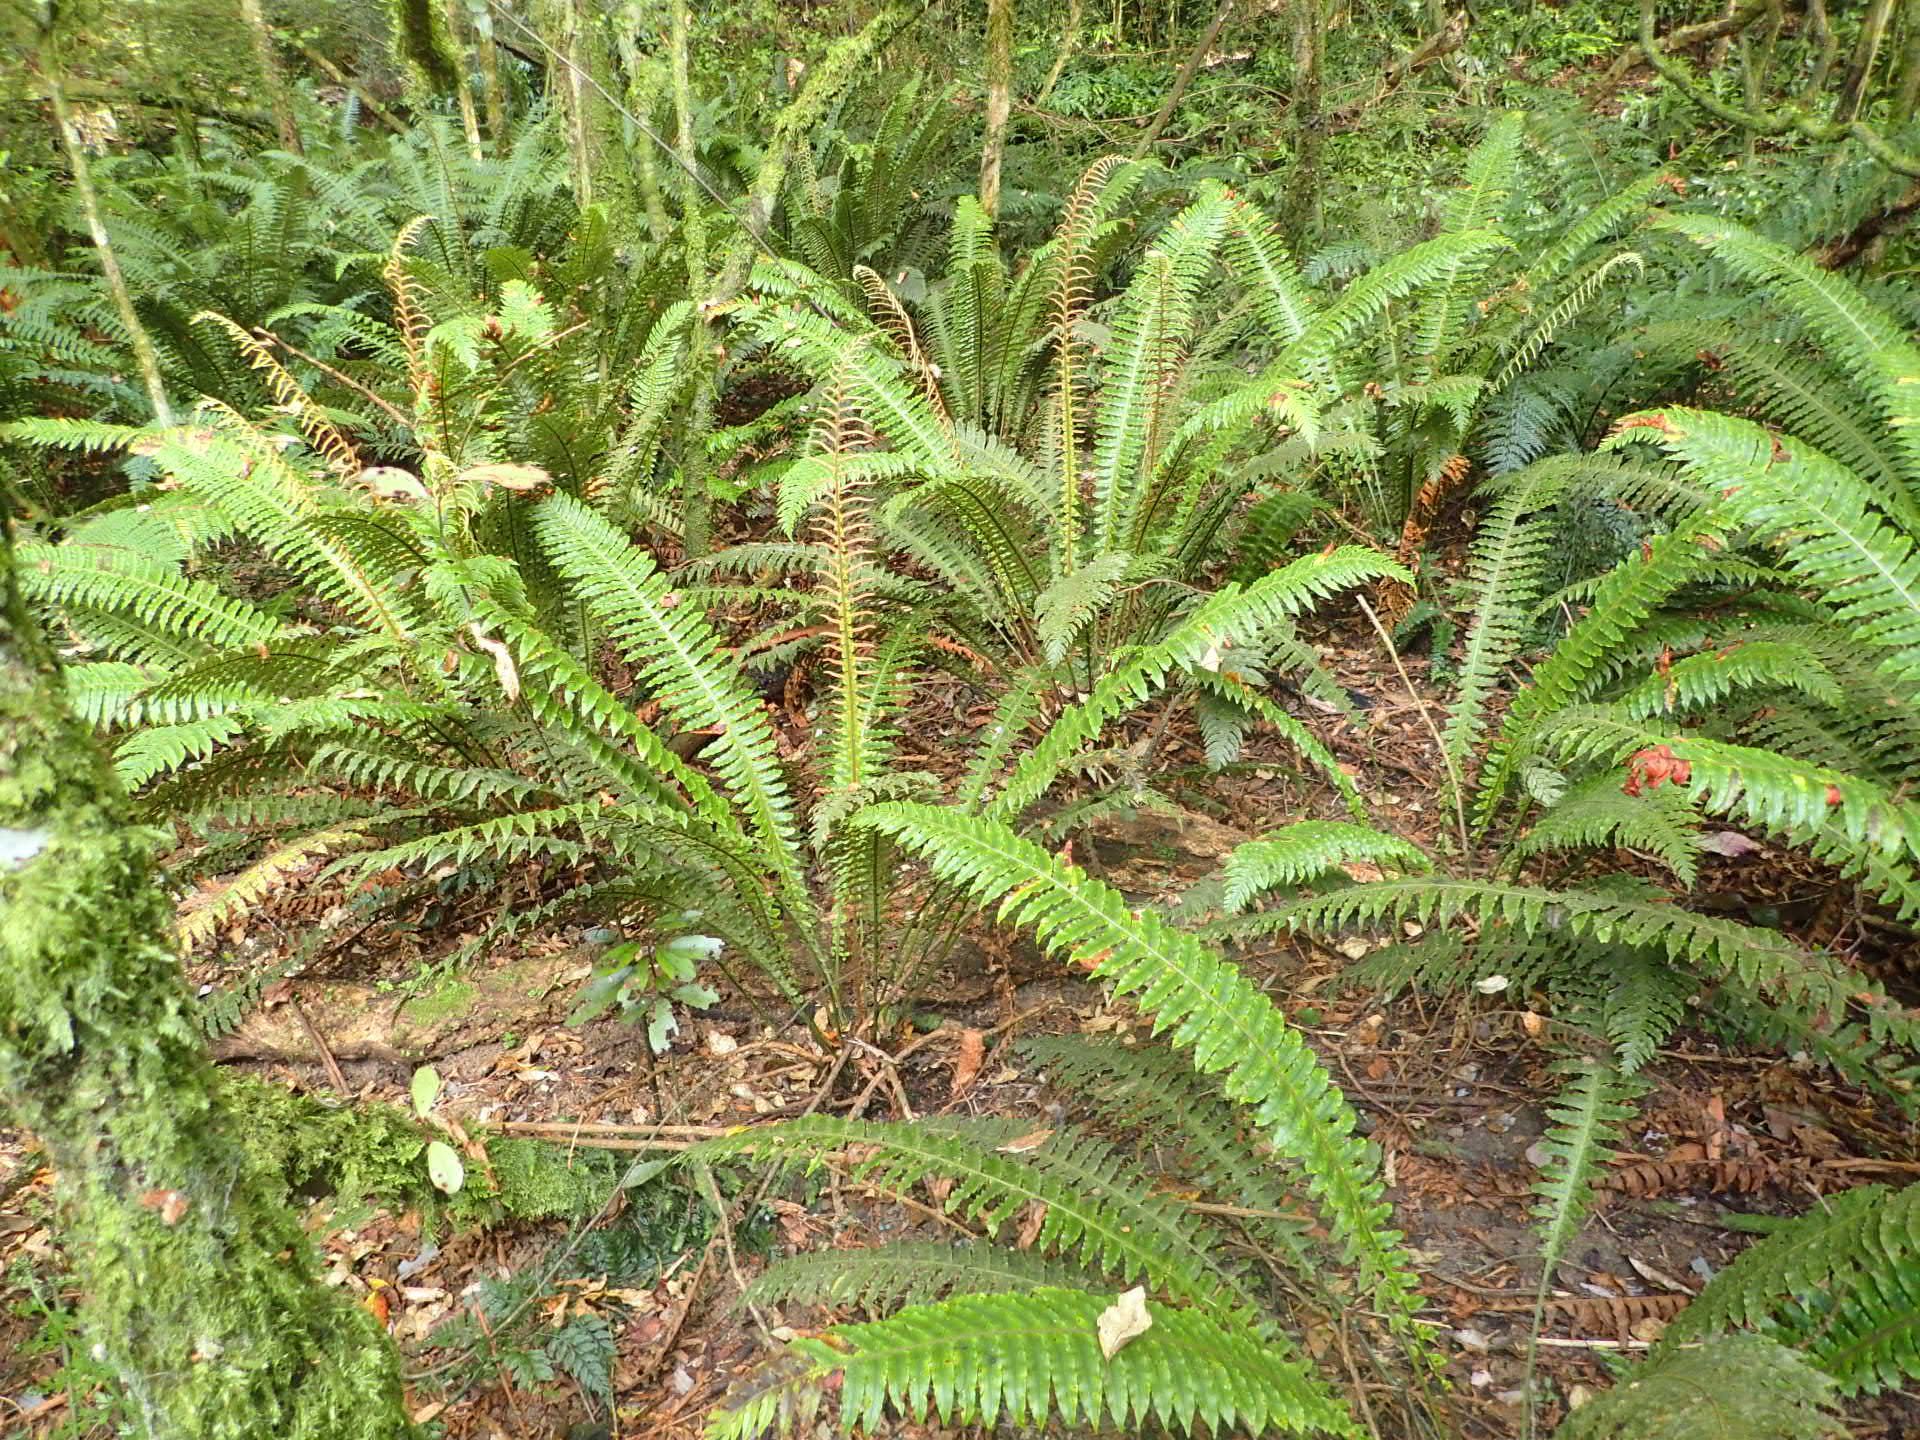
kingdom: Plantae
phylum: Tracheophyta
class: Polypodiopsida
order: Polypodiales
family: Blechnaceae
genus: Lomaria
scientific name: Lomaria discolor
